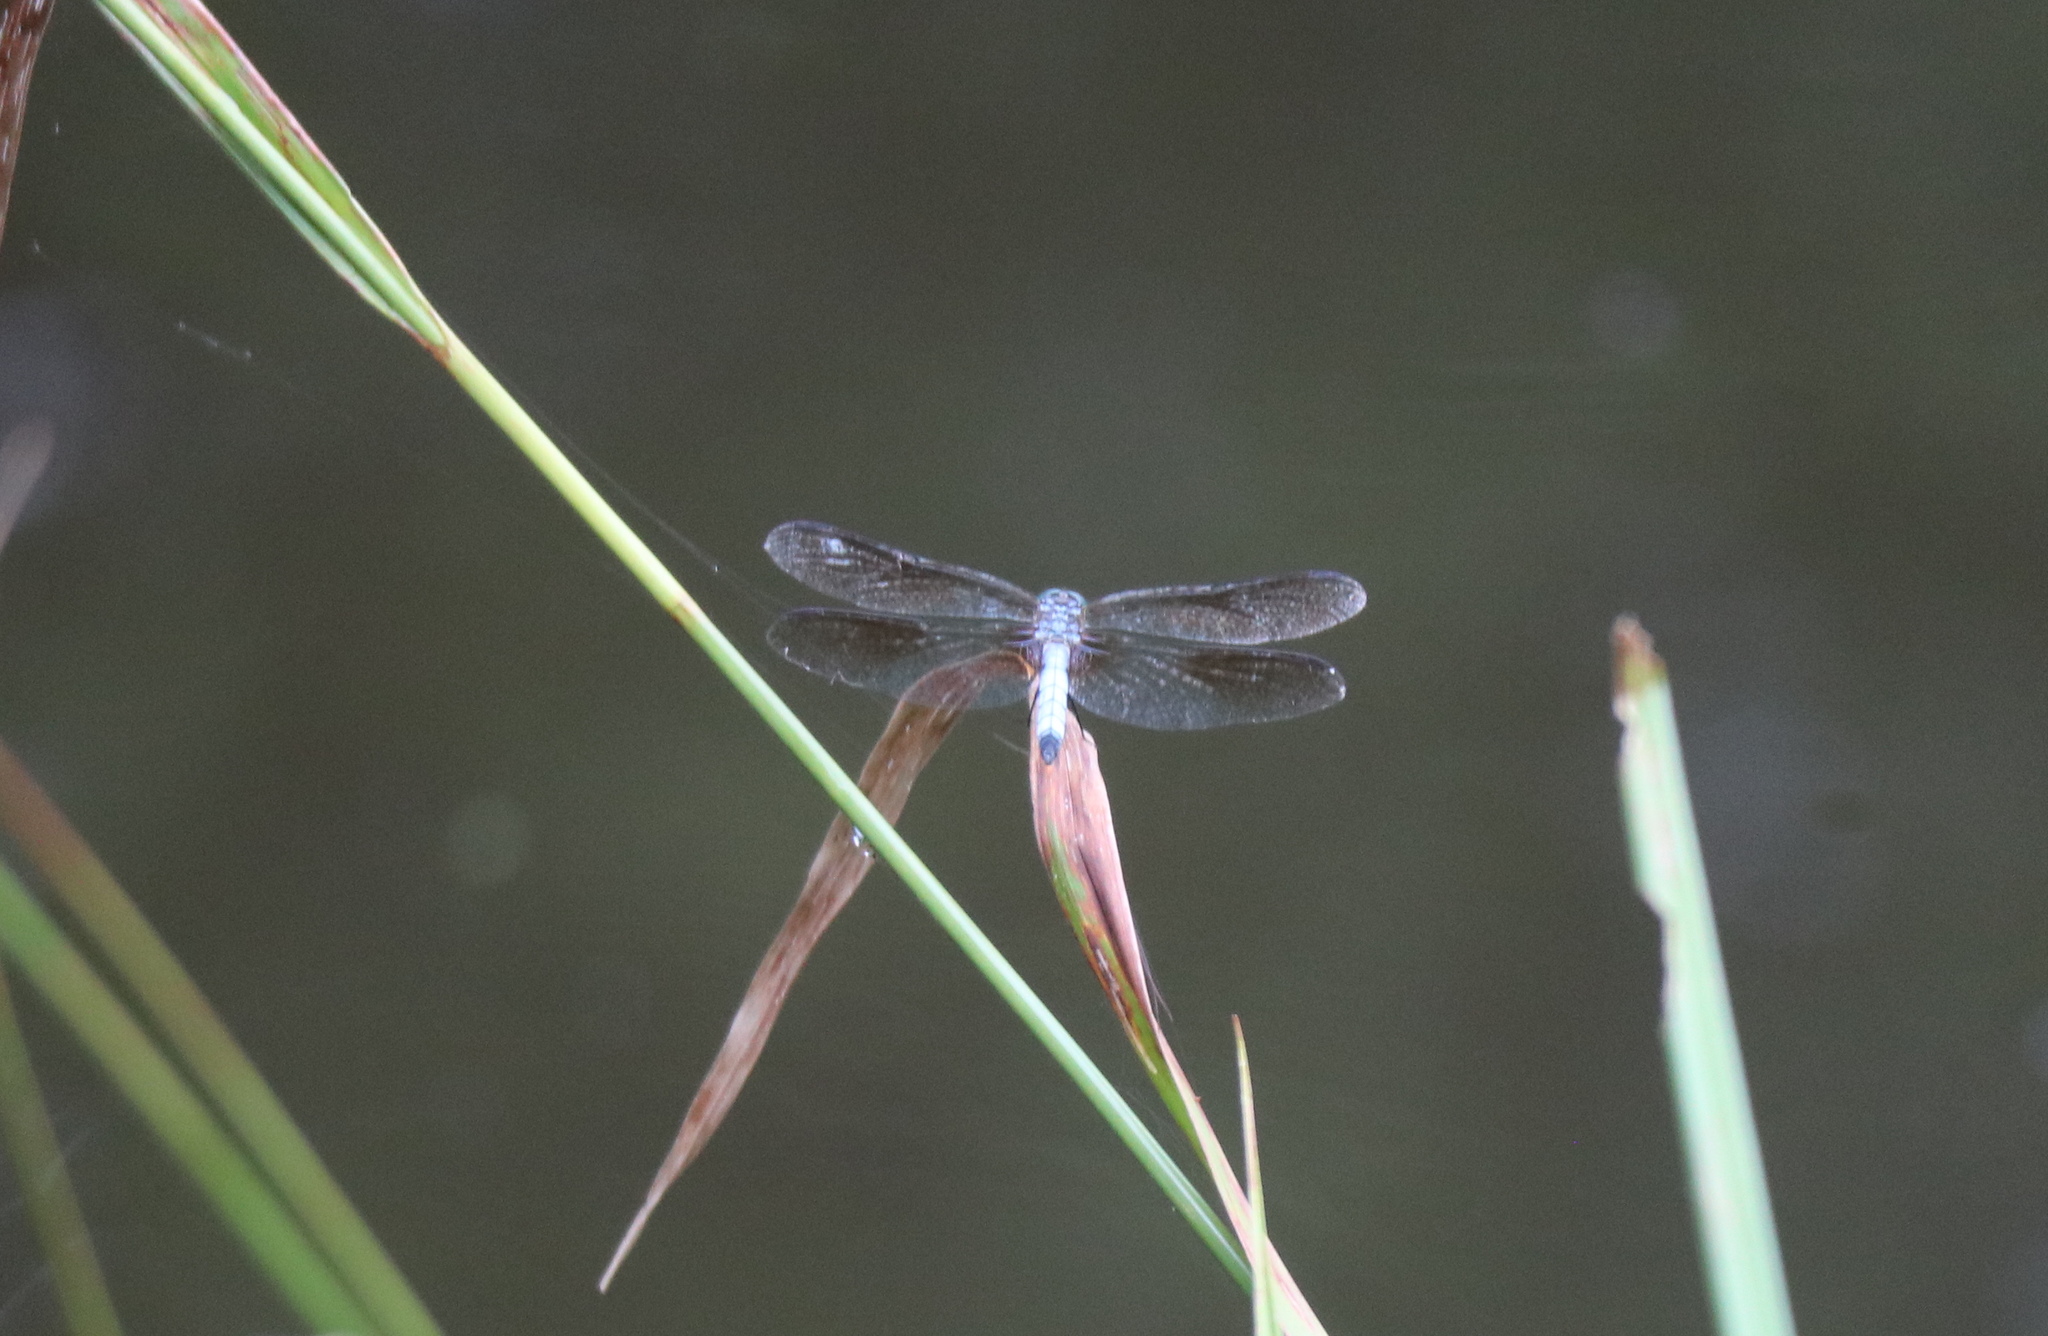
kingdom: Animalia
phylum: Arthropoda
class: Insecta
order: Odonata
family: Libellulidae
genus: Pachydiplax
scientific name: Pachydiplax longipennis
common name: Blue dasher
